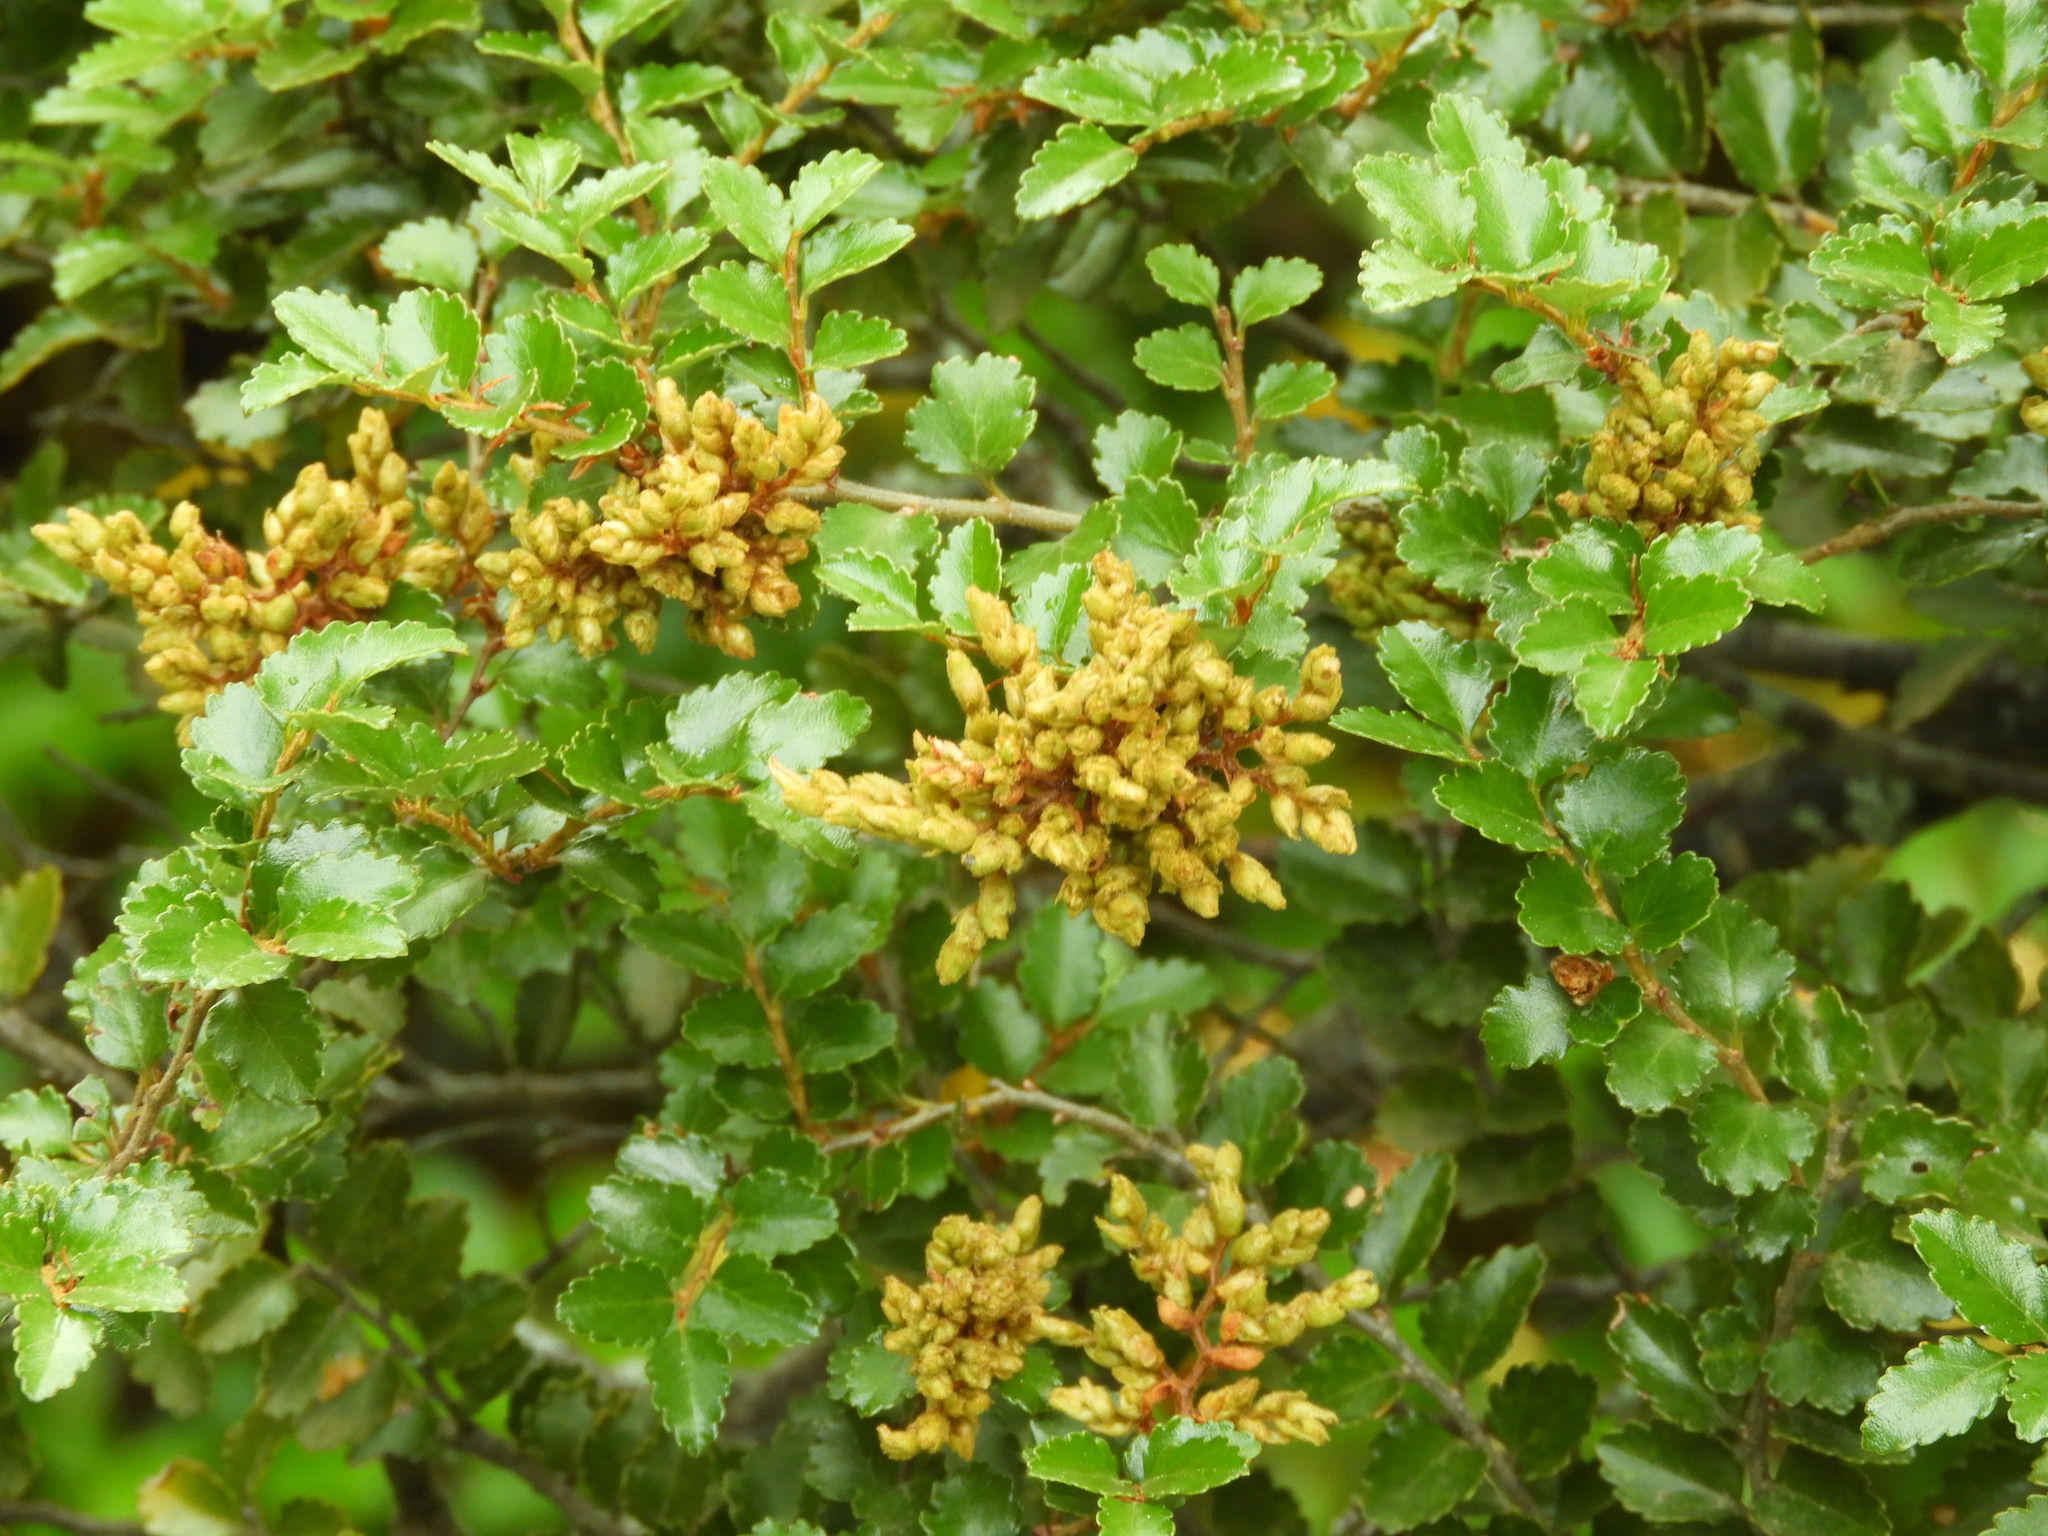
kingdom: Plantae
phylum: Tracheophyta
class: Magnoliopsida
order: Fagales
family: Nothofagaceae
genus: Nothofagus
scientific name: Nothofagus menziesii
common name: Silver beech
